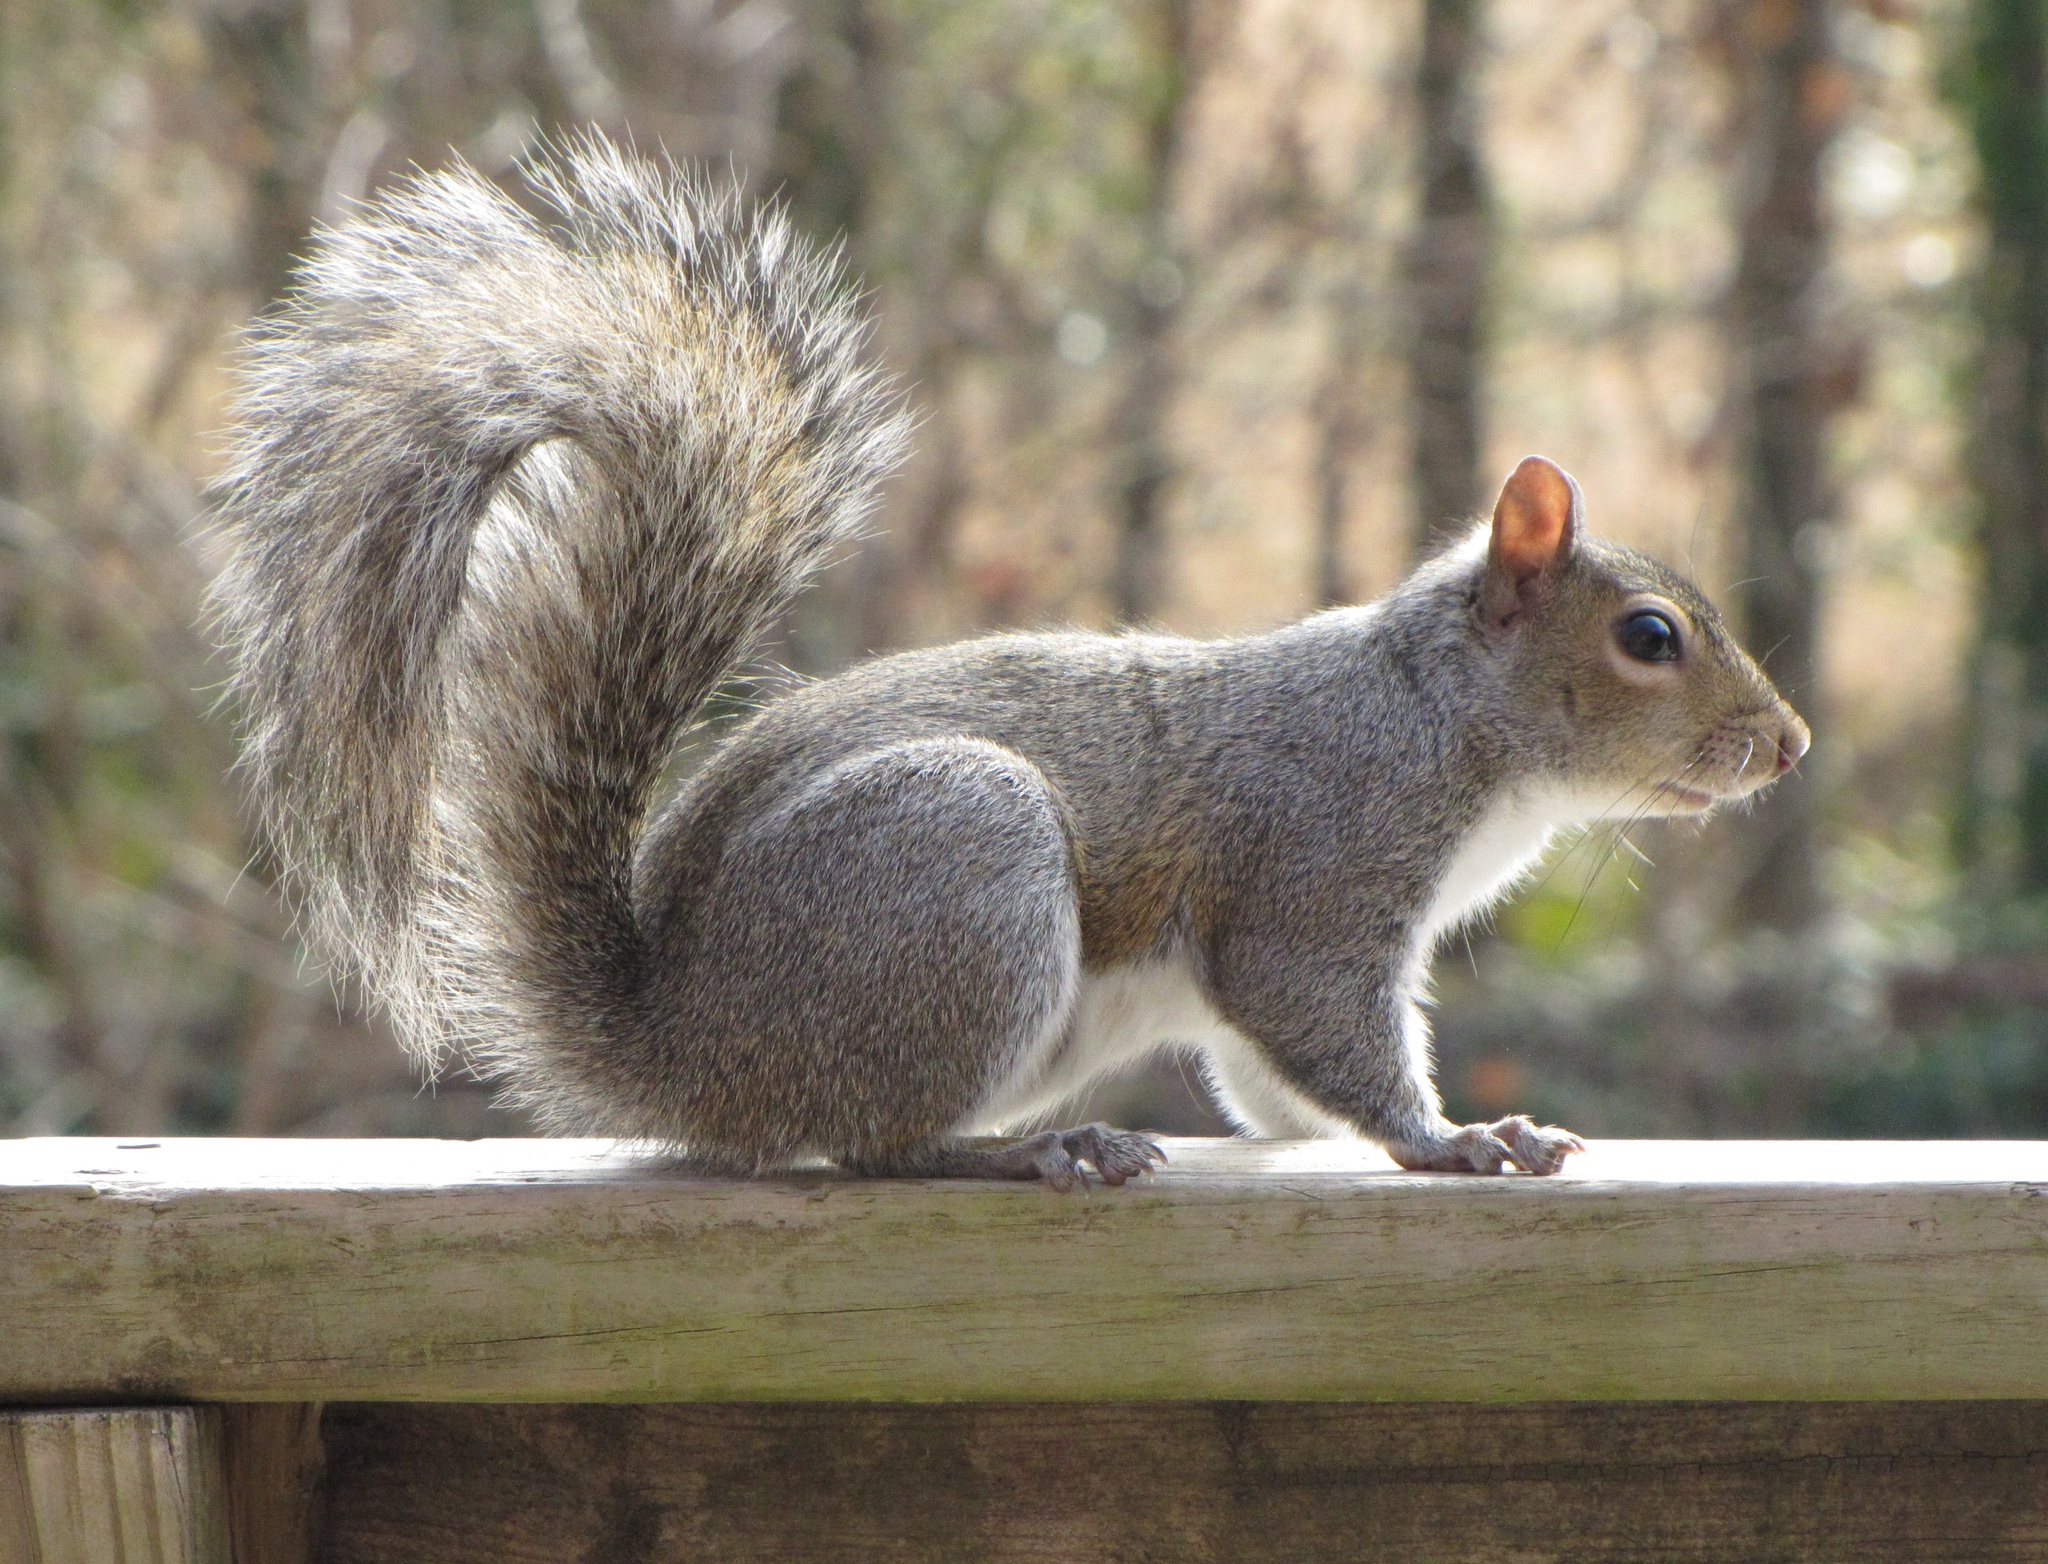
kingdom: Animalia
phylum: Chordata
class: Mammalia
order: Rodentia
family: Sciuridae
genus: Sciurus
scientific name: Sciurus carolinensis
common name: Eastern gray squirrel
